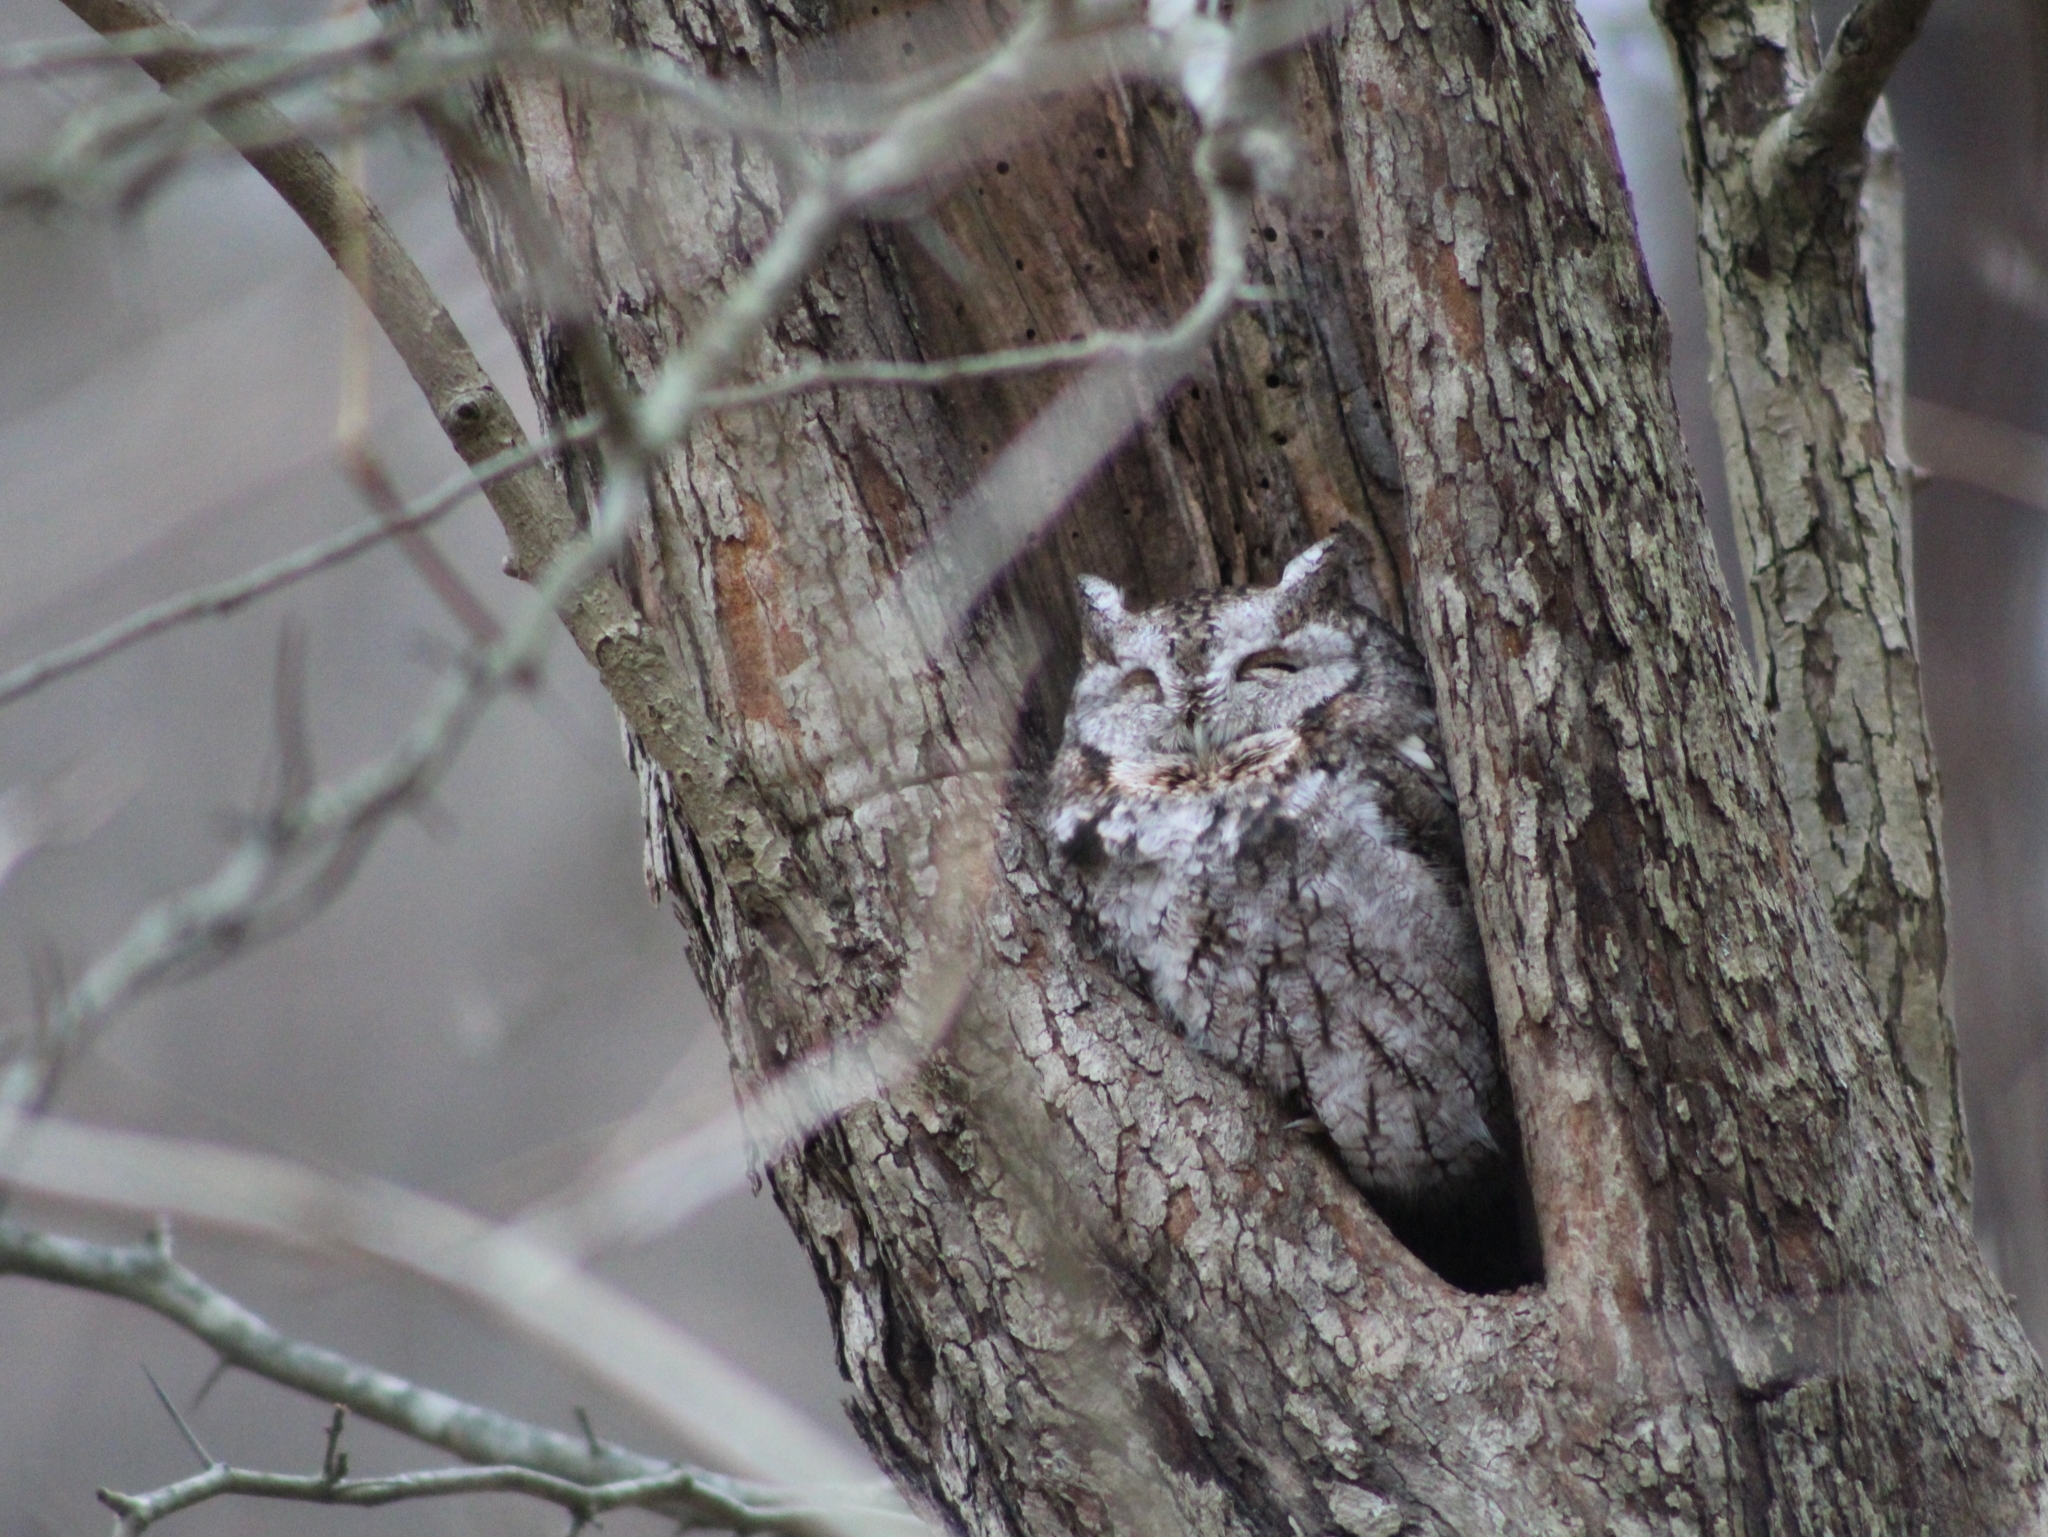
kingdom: Animalia
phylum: Chordata
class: Aves
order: Strigiformes
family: Strigidae
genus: Megascops
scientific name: Megascops asio
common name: Eastern screech-owl
